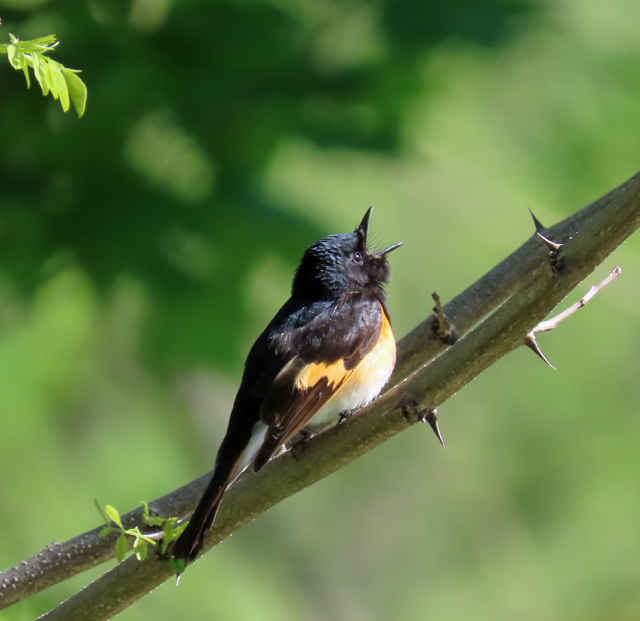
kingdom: Animalia
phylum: Chordata
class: Aves
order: Passeriformes
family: Parulidae
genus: Setophaga
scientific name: Setophaga ruticilla
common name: American redstart
